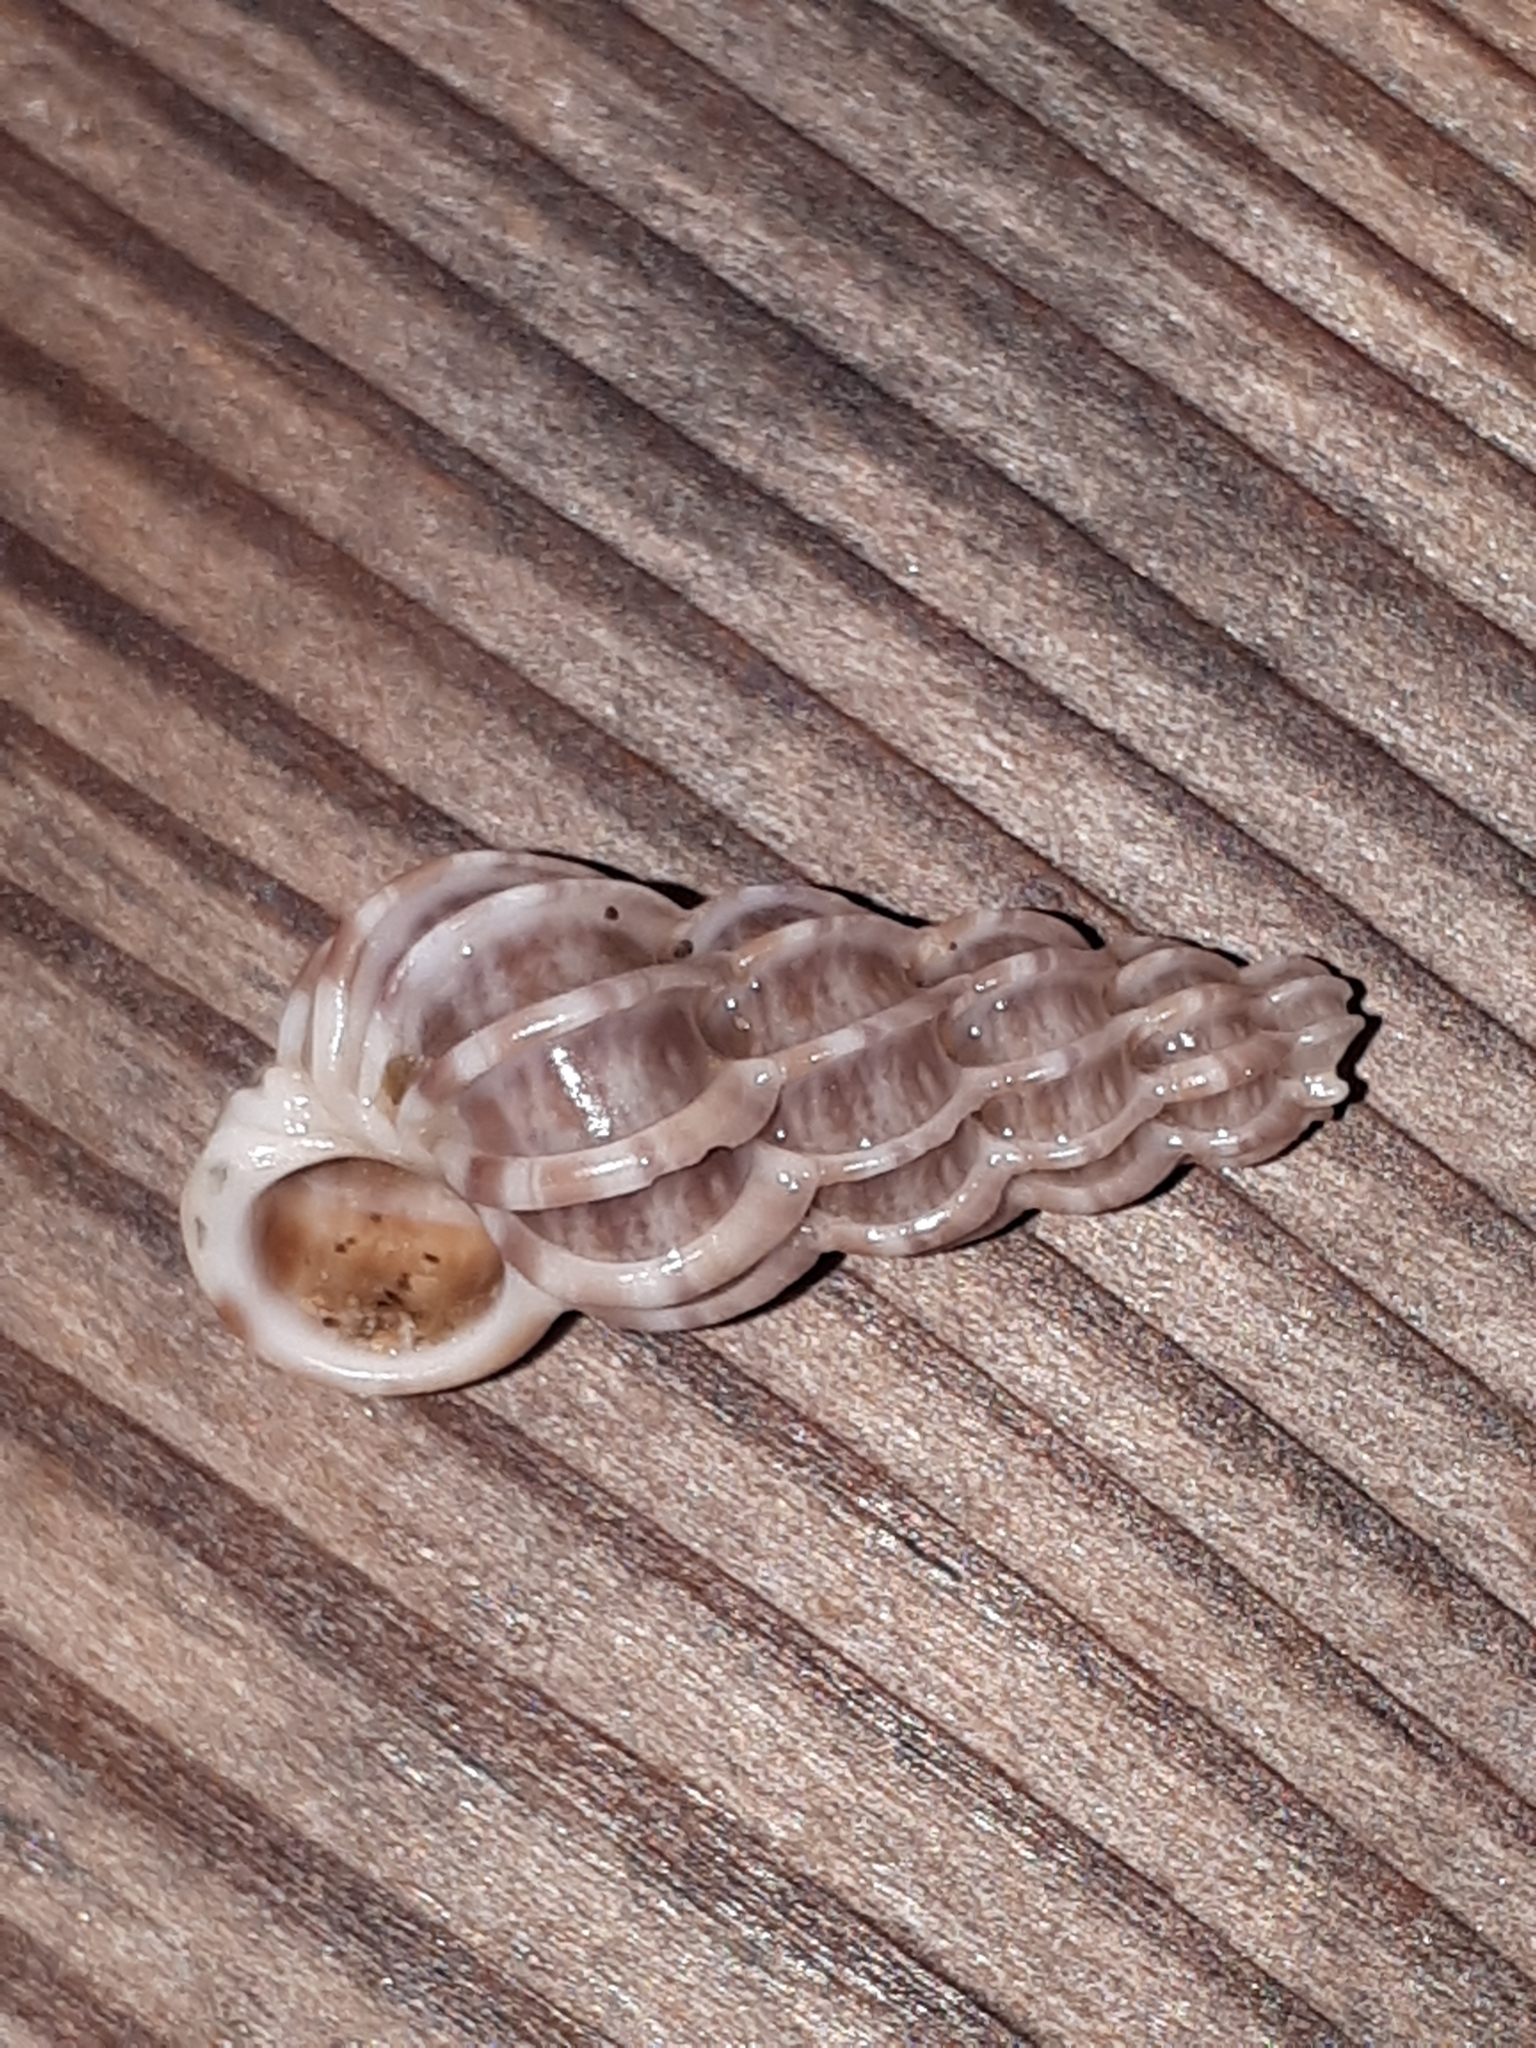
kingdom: Animalia
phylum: Mollusca
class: Gastropoda
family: Epitoniidae
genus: Epitonium
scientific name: Epitonium clathrus
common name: Common wentletrap
